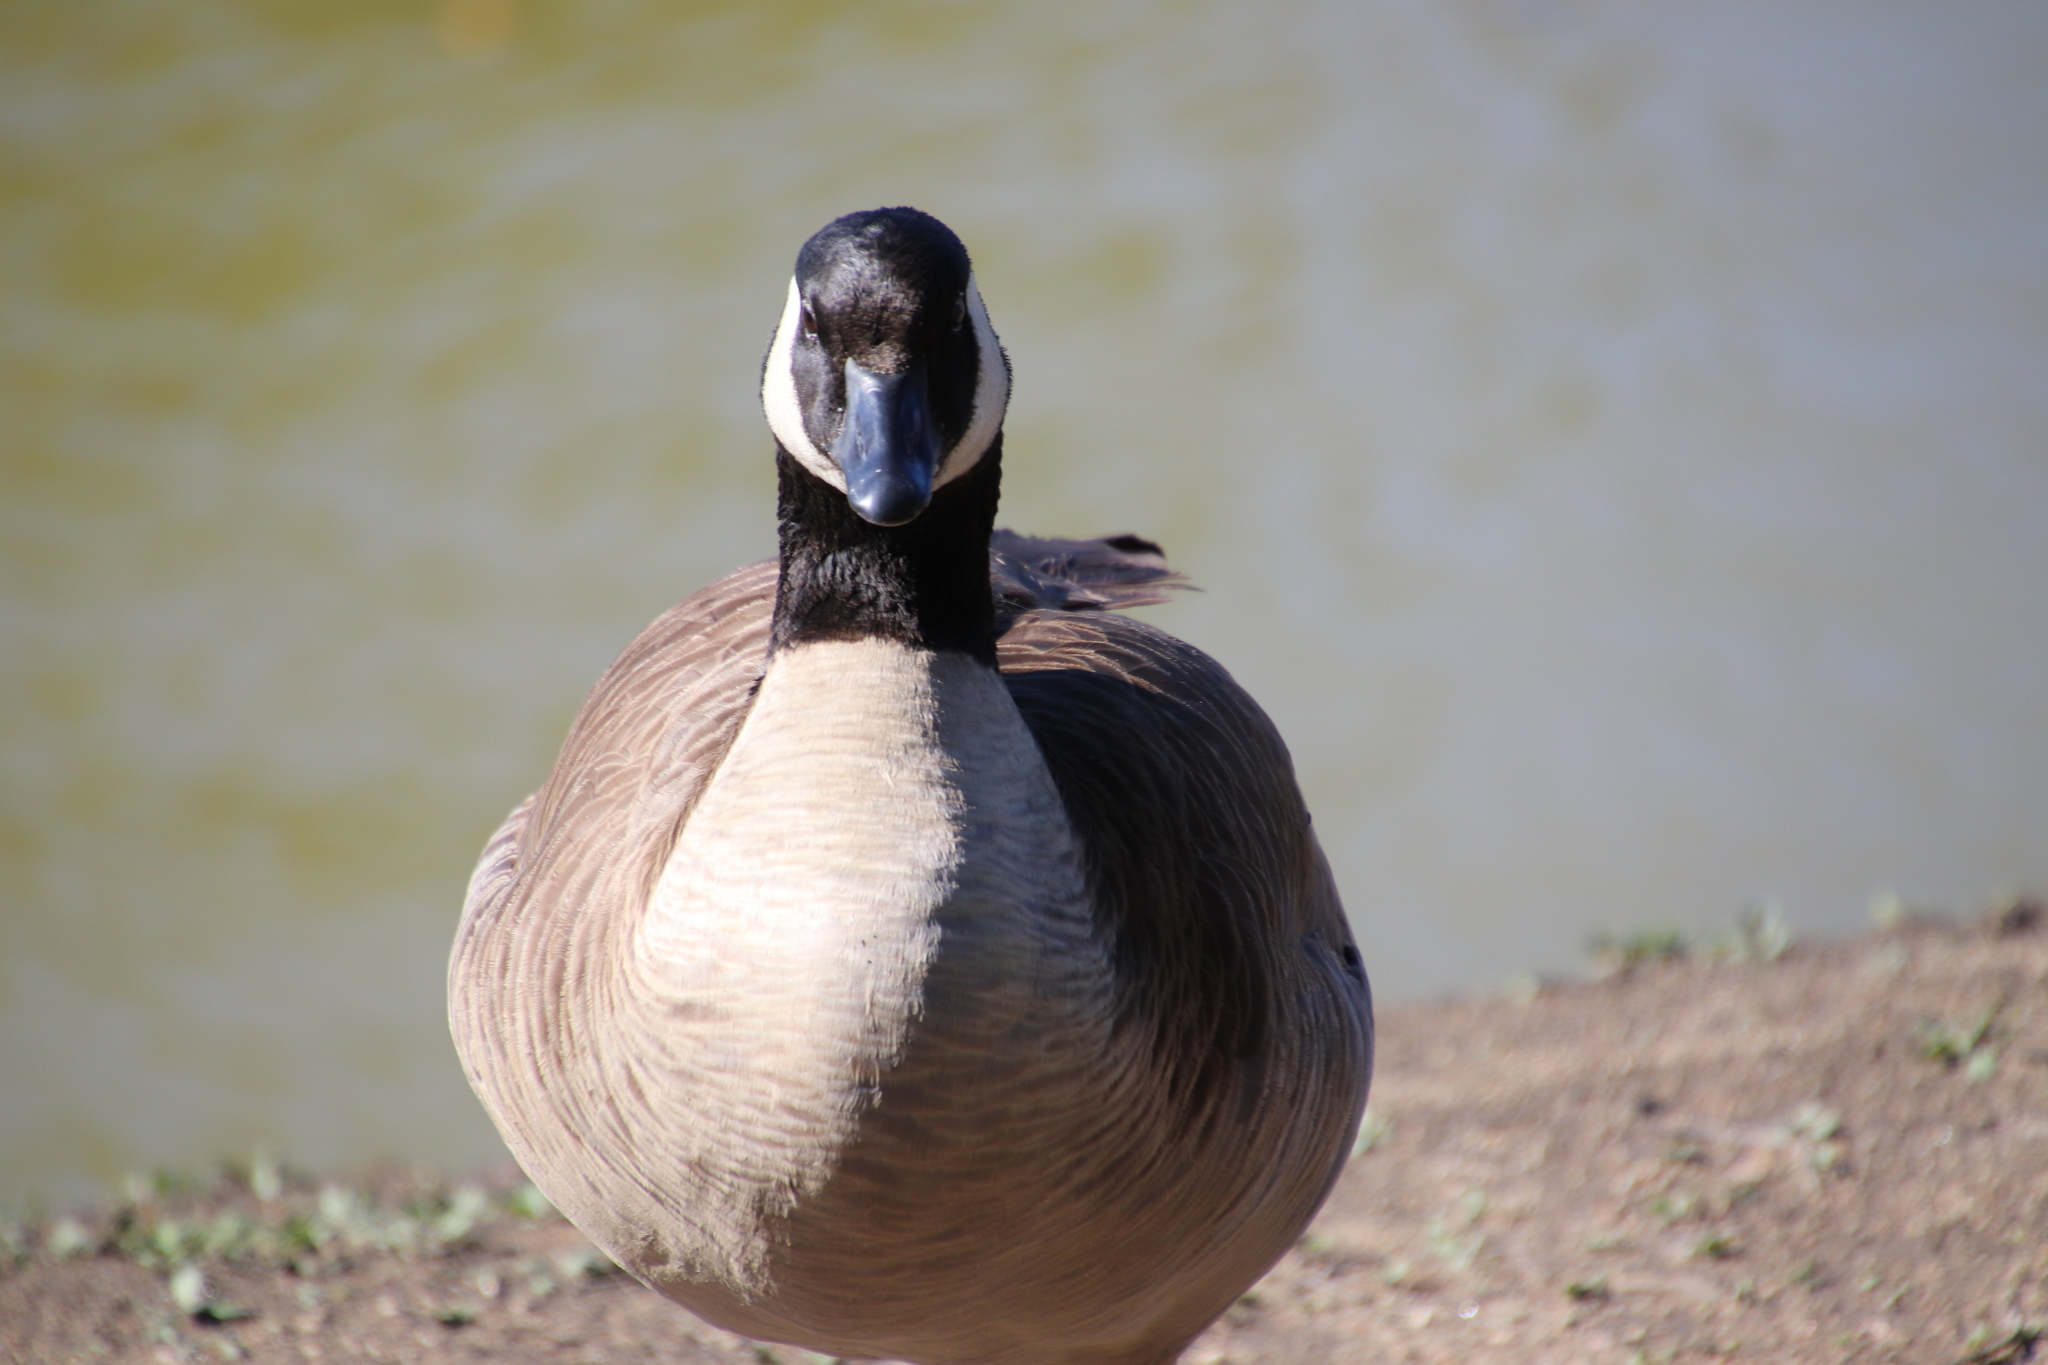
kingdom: Animalia
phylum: Chordata
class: Aves
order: Anseriformes
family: Anatidae
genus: Branta
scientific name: Branta canadensis
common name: Canada goose
